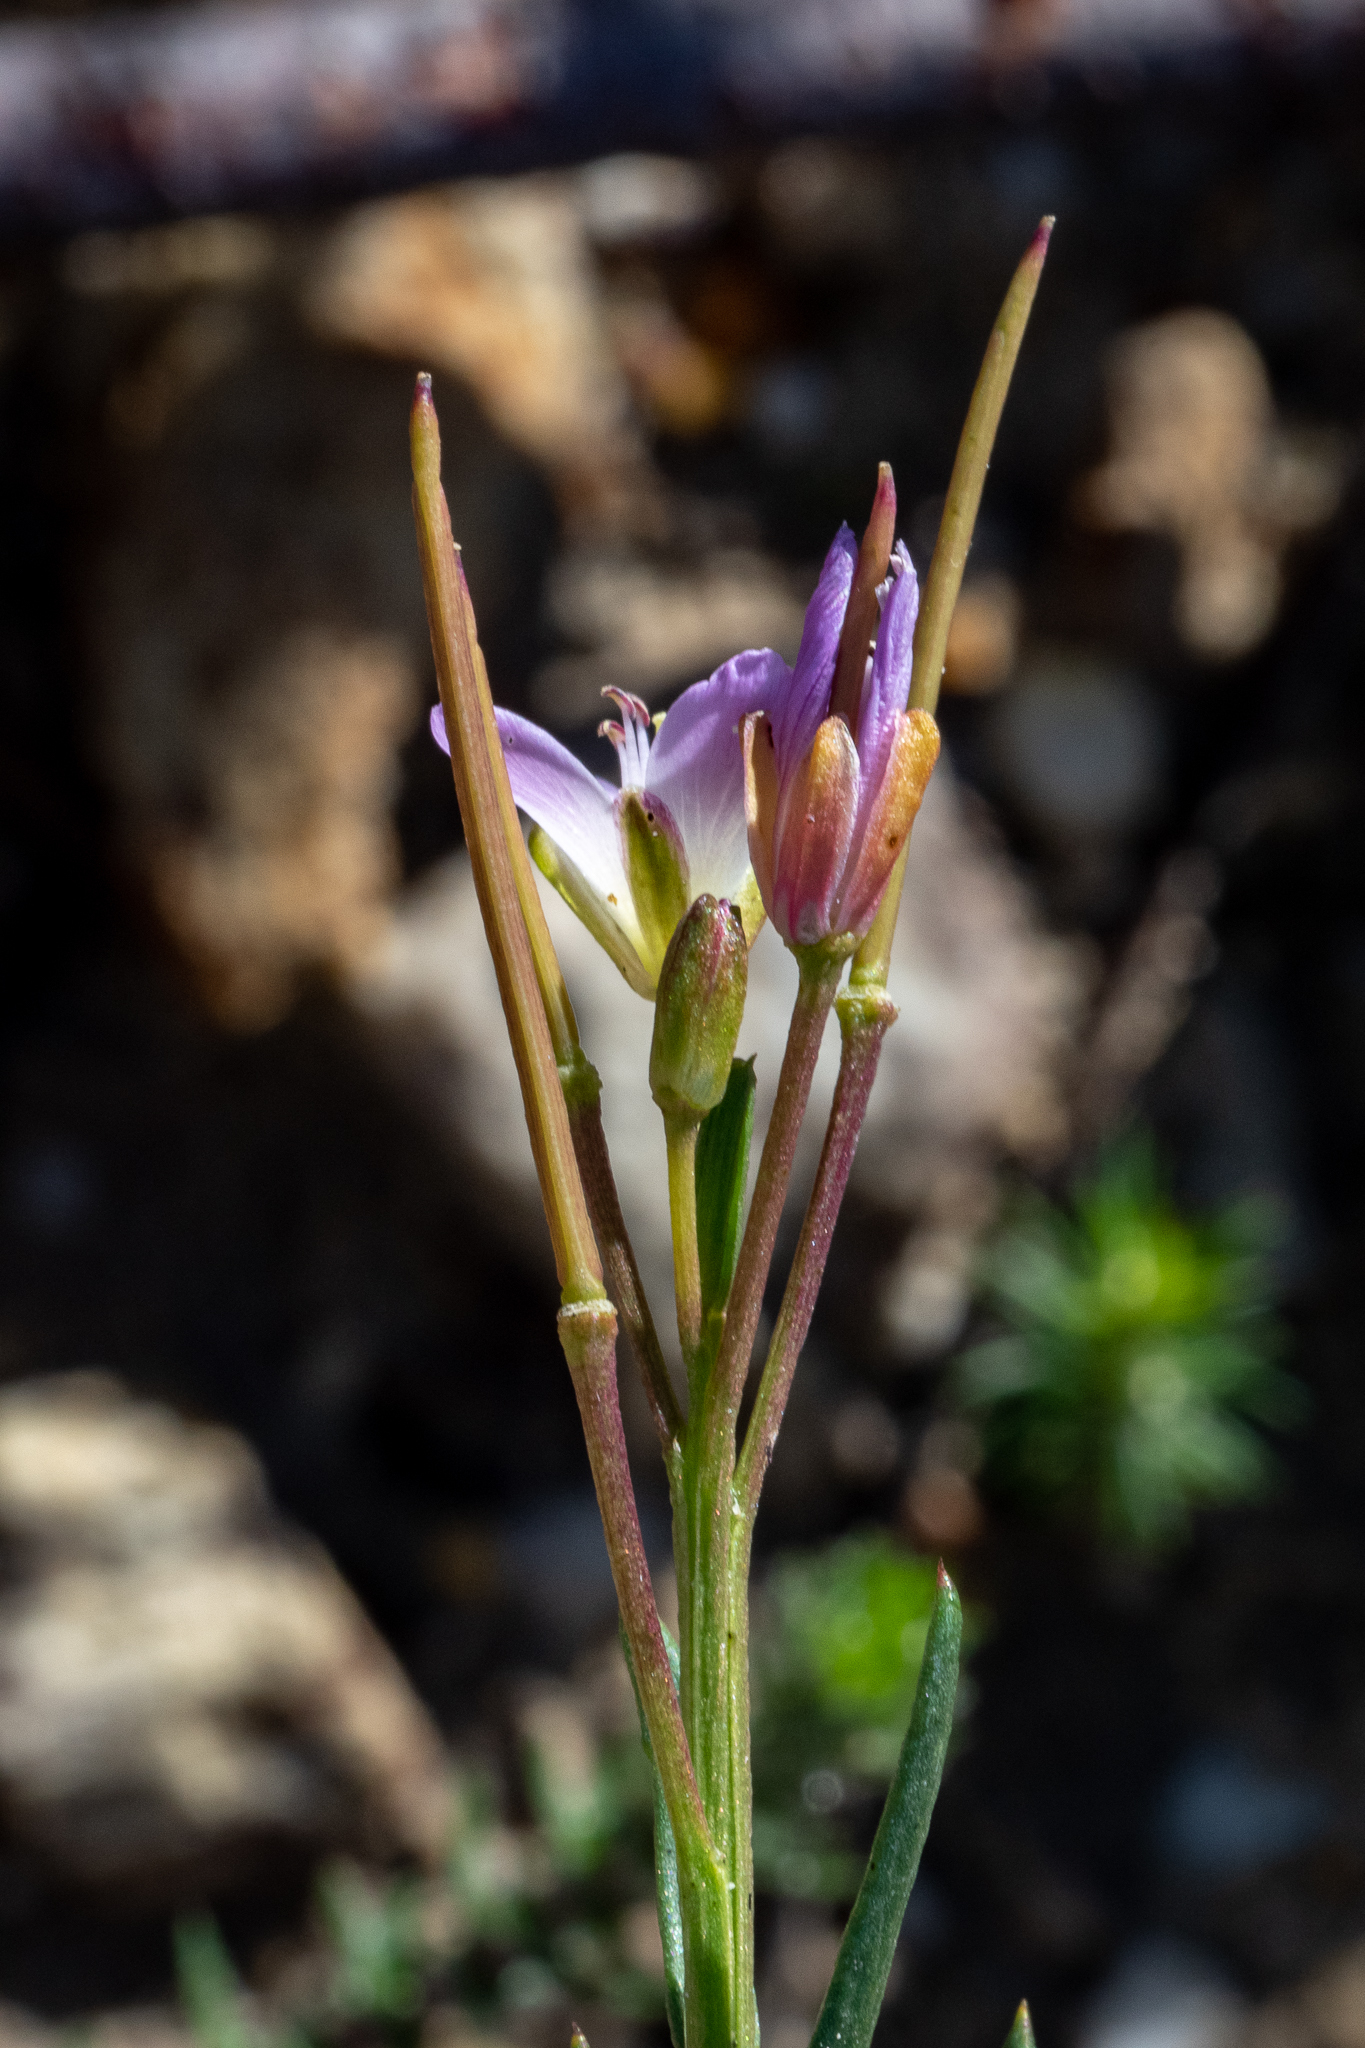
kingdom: Plantae
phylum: Tracheophyta
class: Magnoliopsida
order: Brassicales
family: Brassicaceae
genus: Heliophila
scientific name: Heliophila scoparia
